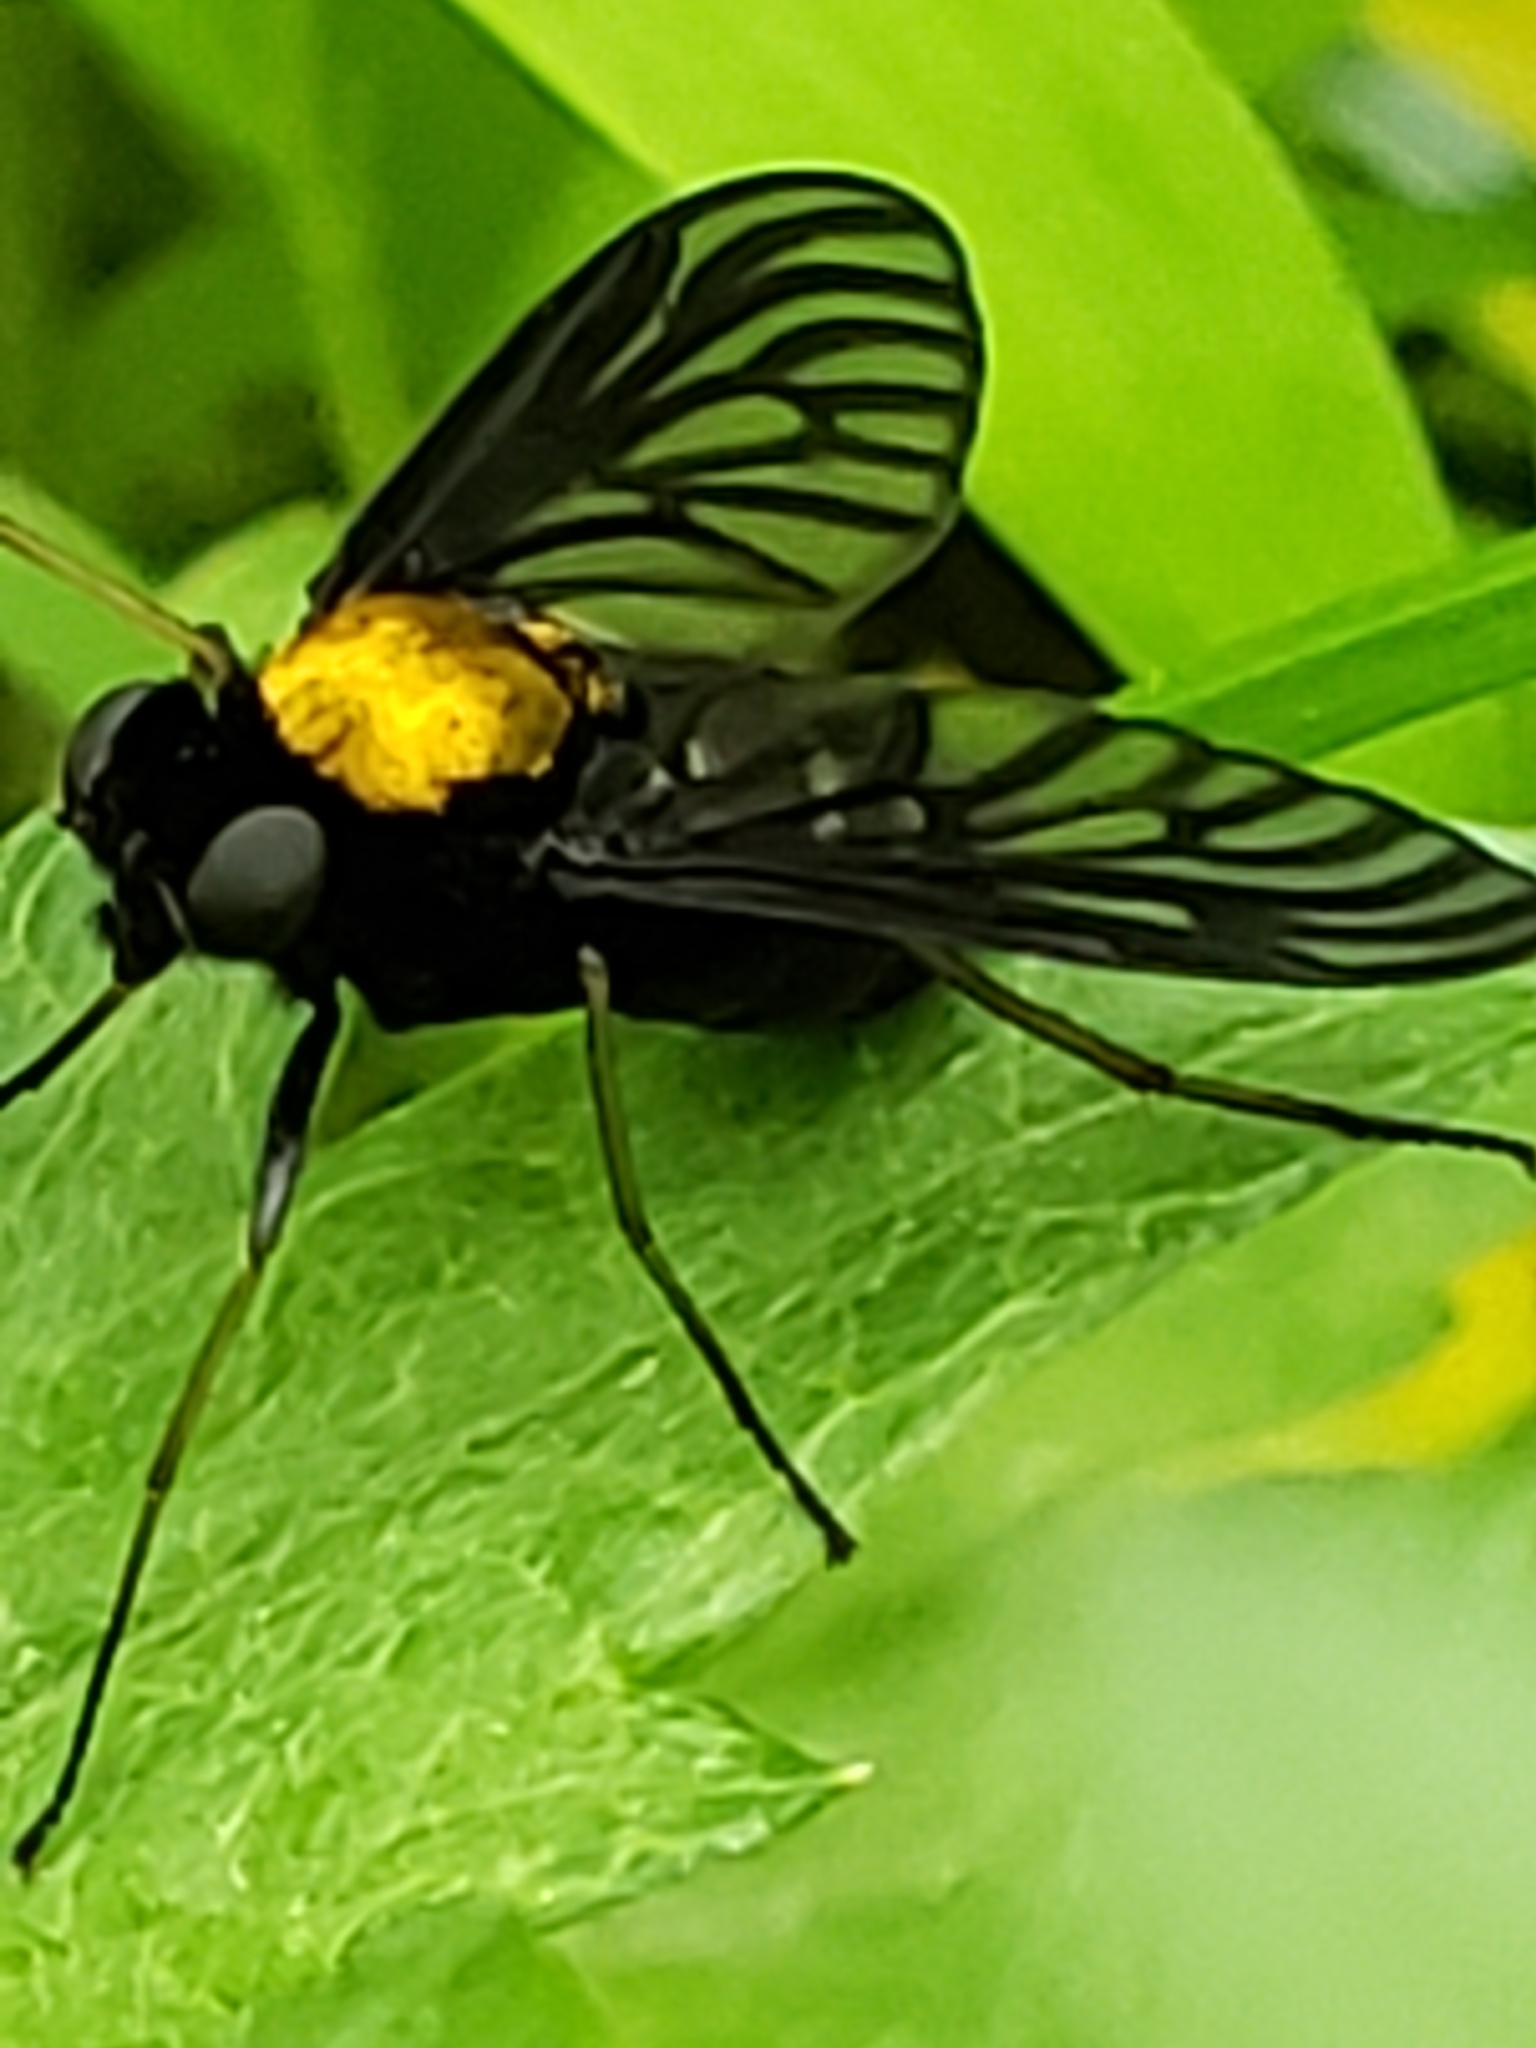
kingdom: Animalia
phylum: Arthropoda
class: Insecta
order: Diptera
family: Rhagionidae
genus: Chrysopilus
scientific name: Chrysopilus thoracicus
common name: Golden-backed snipe fly
